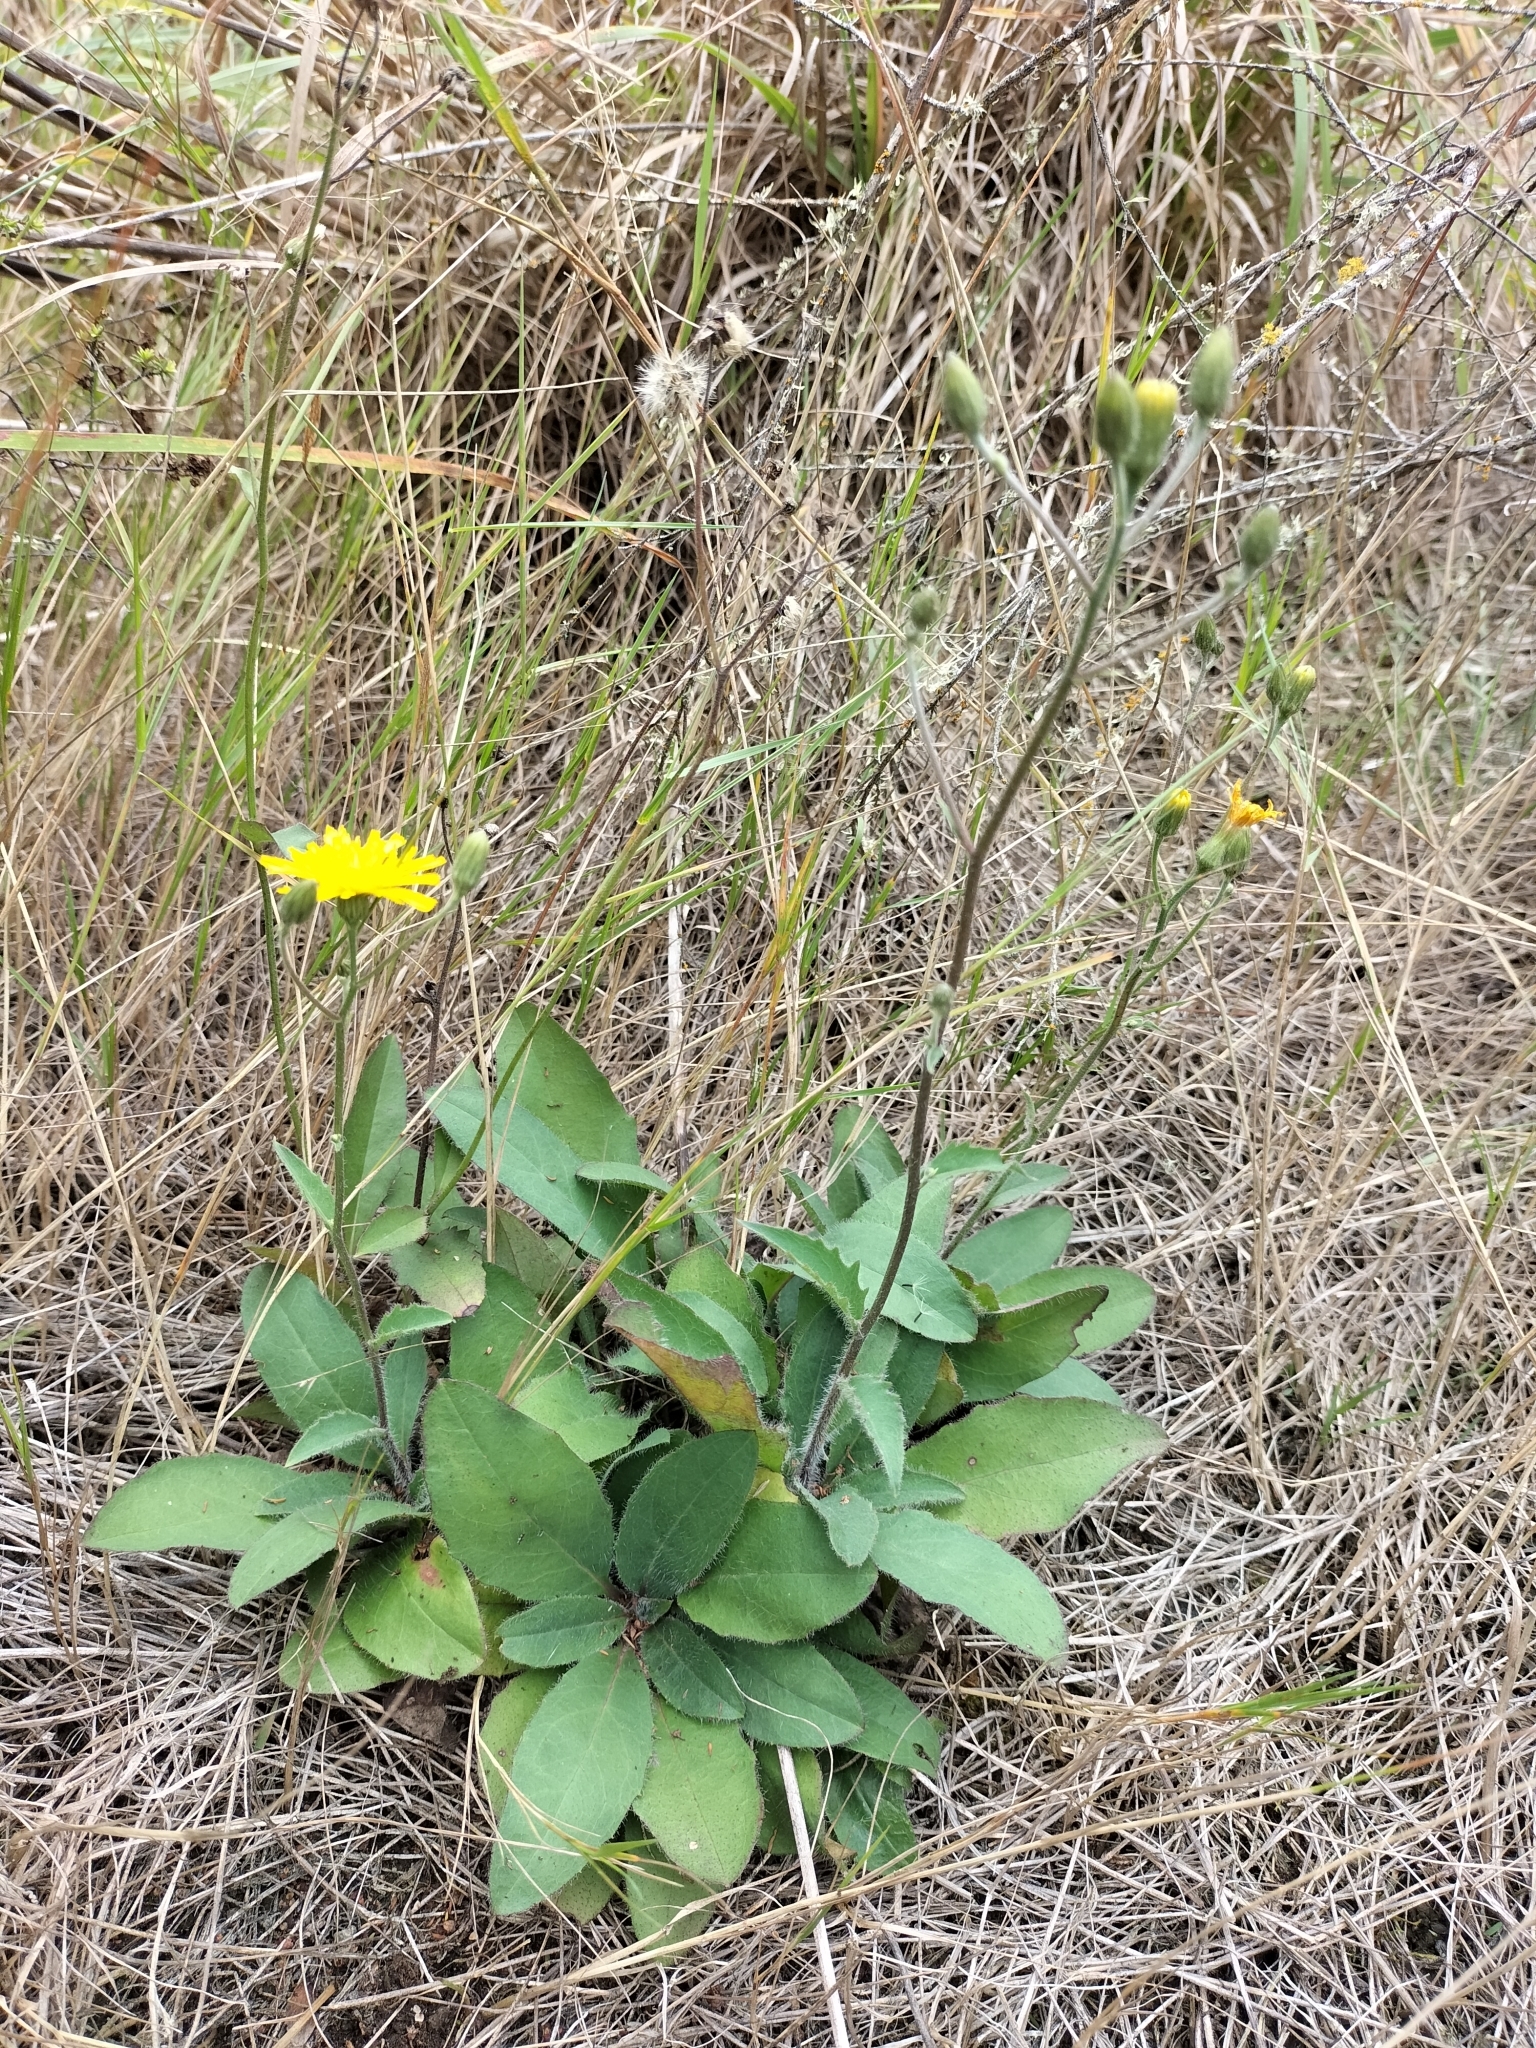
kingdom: Plantae
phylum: Tracheophyta
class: Magnoliopsida
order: Asterales
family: Asteraceae
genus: Hieracium
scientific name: Hieracium lepidulum
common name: Irregular-toothed hawkweed
